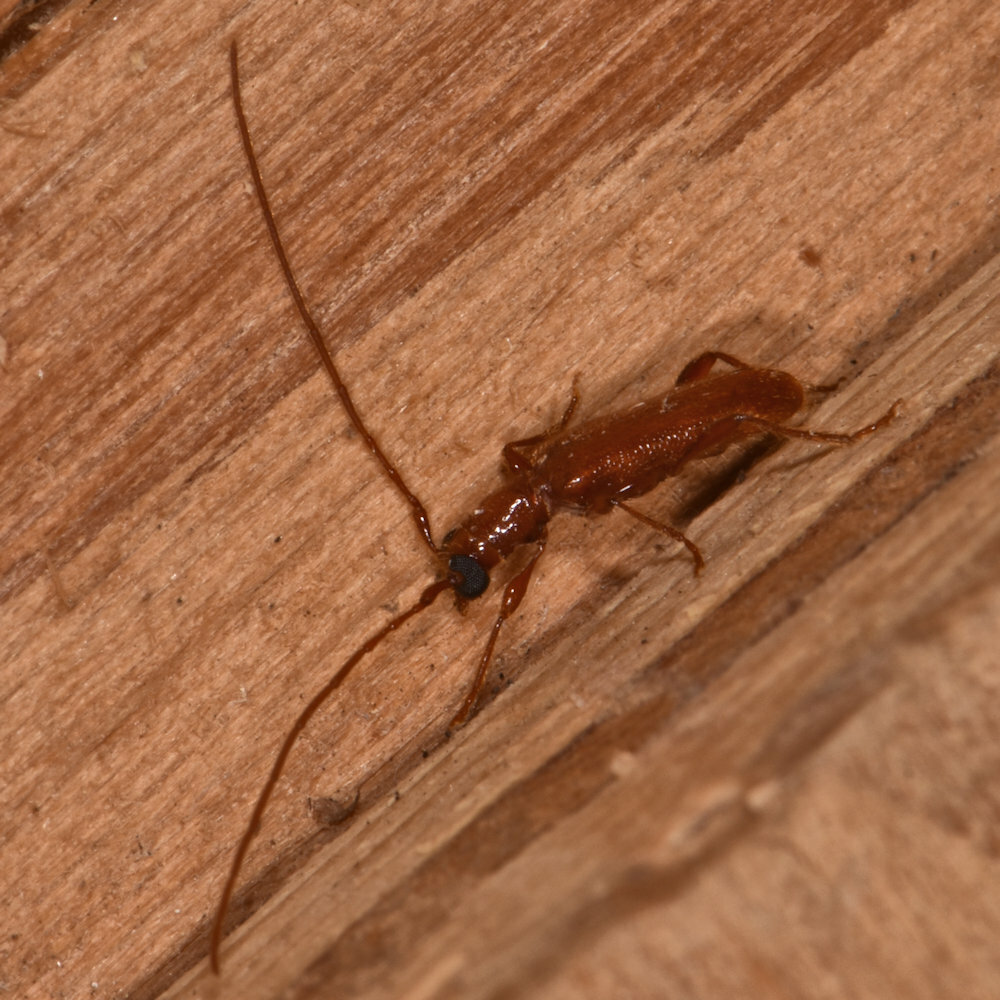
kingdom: Animalia
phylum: Arthropoda
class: Insecta
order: Coleoptera
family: Cerambycidae
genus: Obrium
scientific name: Obrium rufulum
